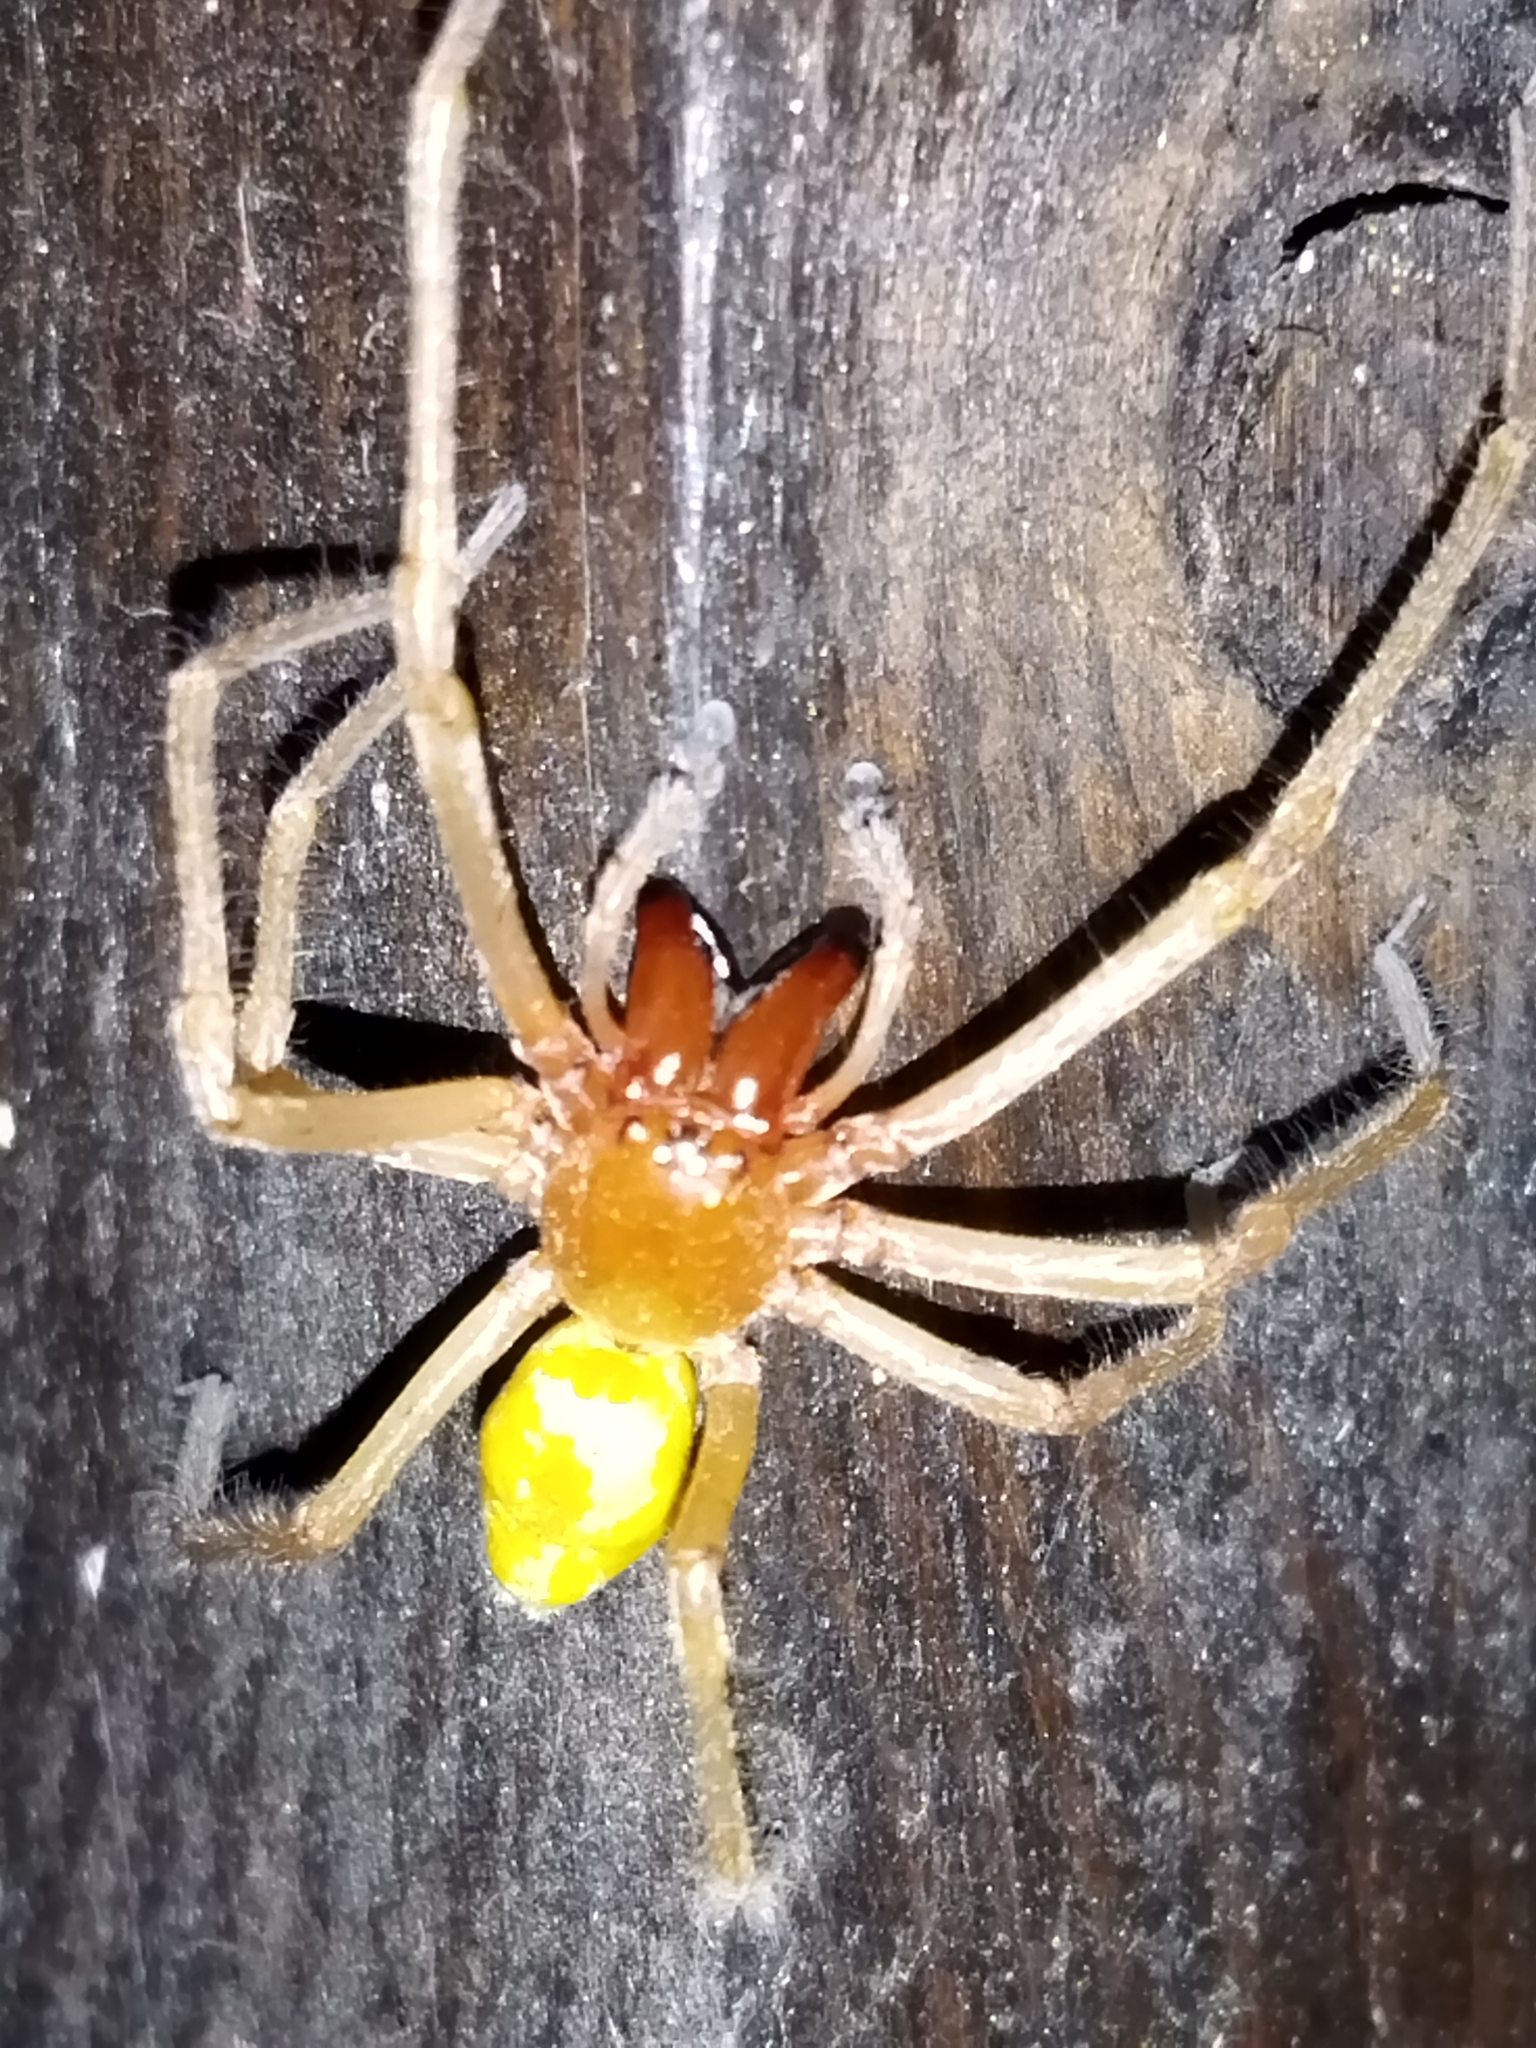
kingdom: Animalia
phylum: Arthropoda
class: Arachnida
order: Araneae
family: Cheiracanthiidae
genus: Cheiracanthium
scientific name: Cheiracanthium punctorium
